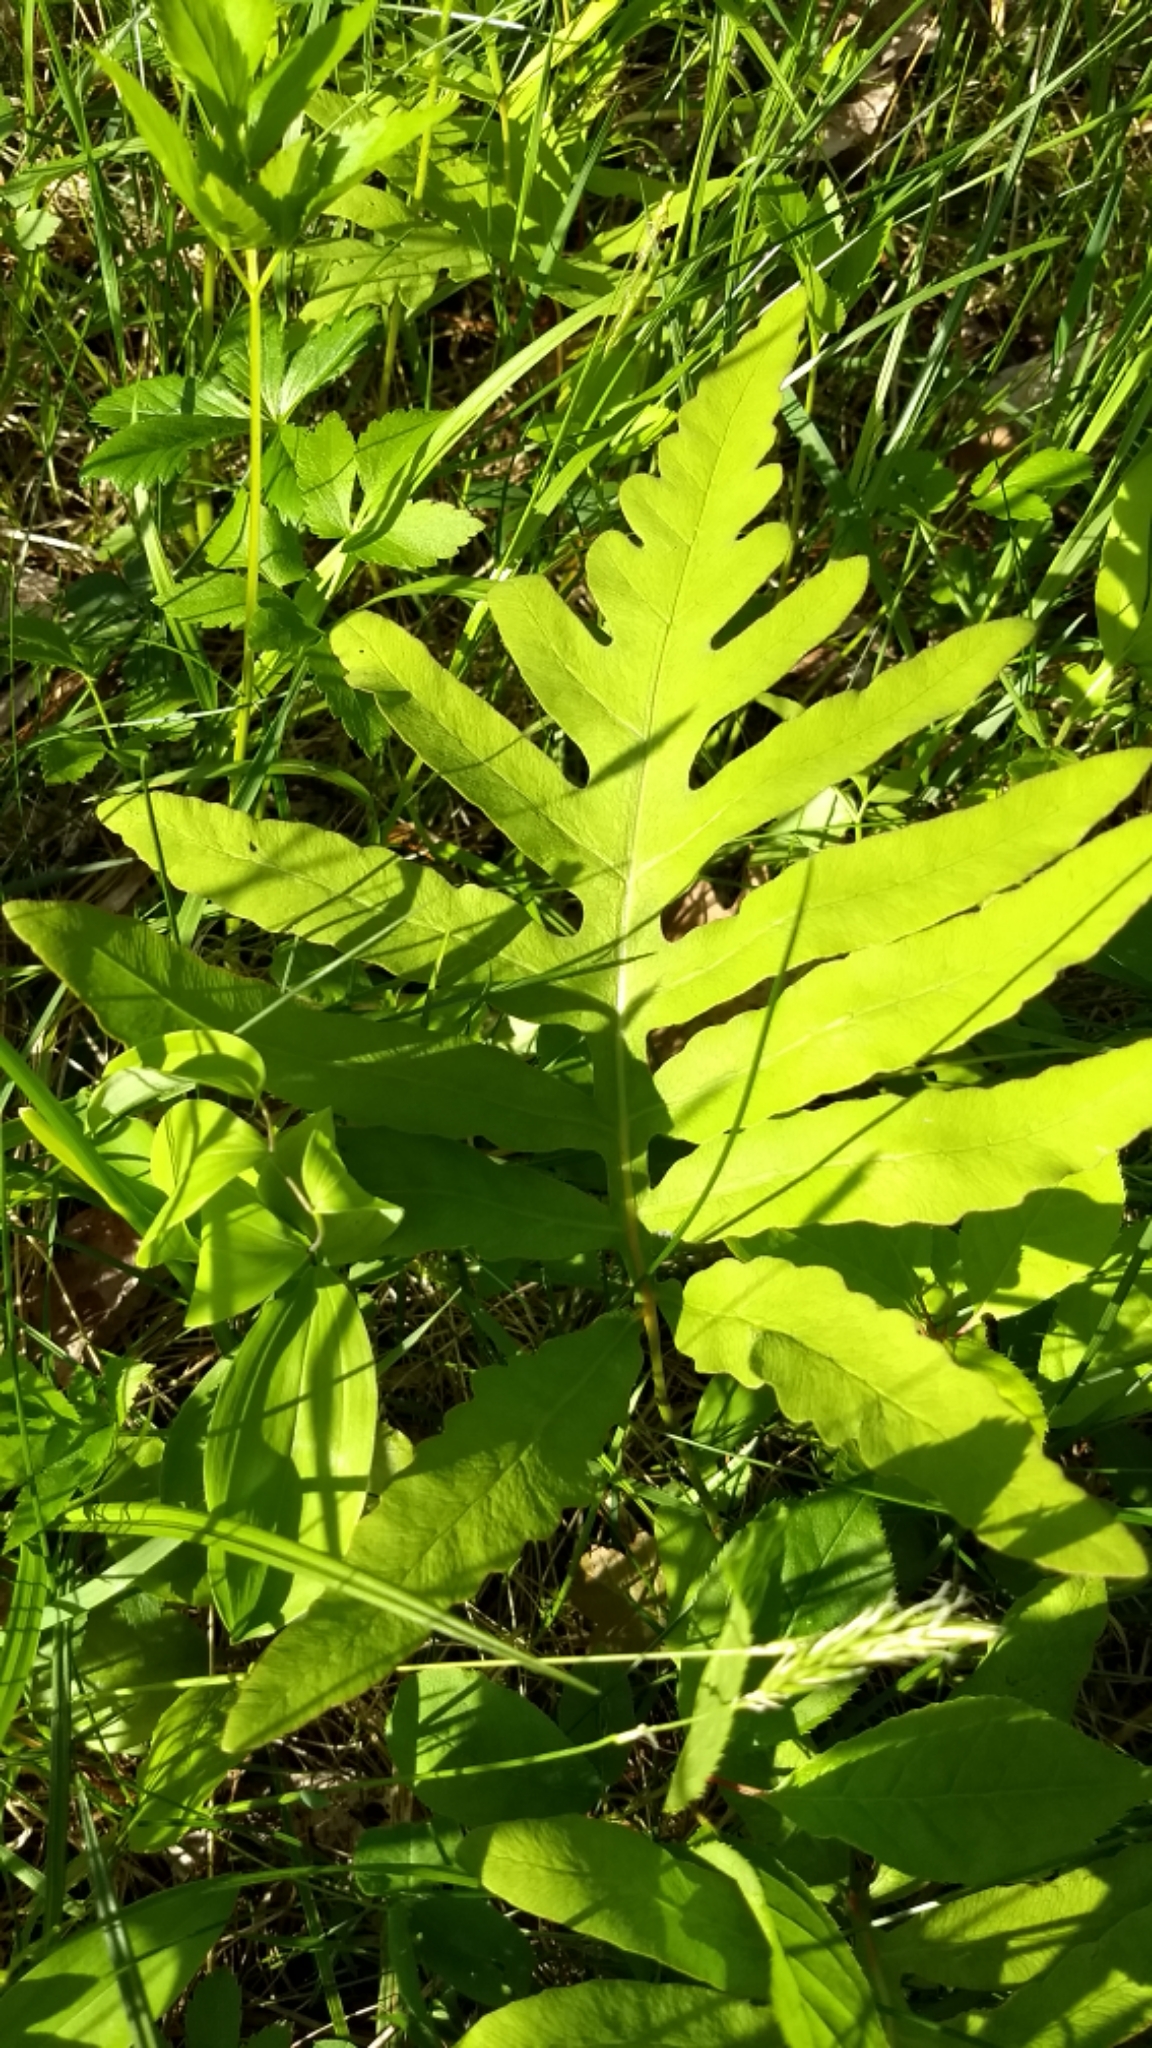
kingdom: Plantae
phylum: Tracheophyta
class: Polypodiopsida
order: Polypodiales
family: Onocleaceae
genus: Onoclea
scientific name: Onoclea sensibilis
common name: Sensitive fern
